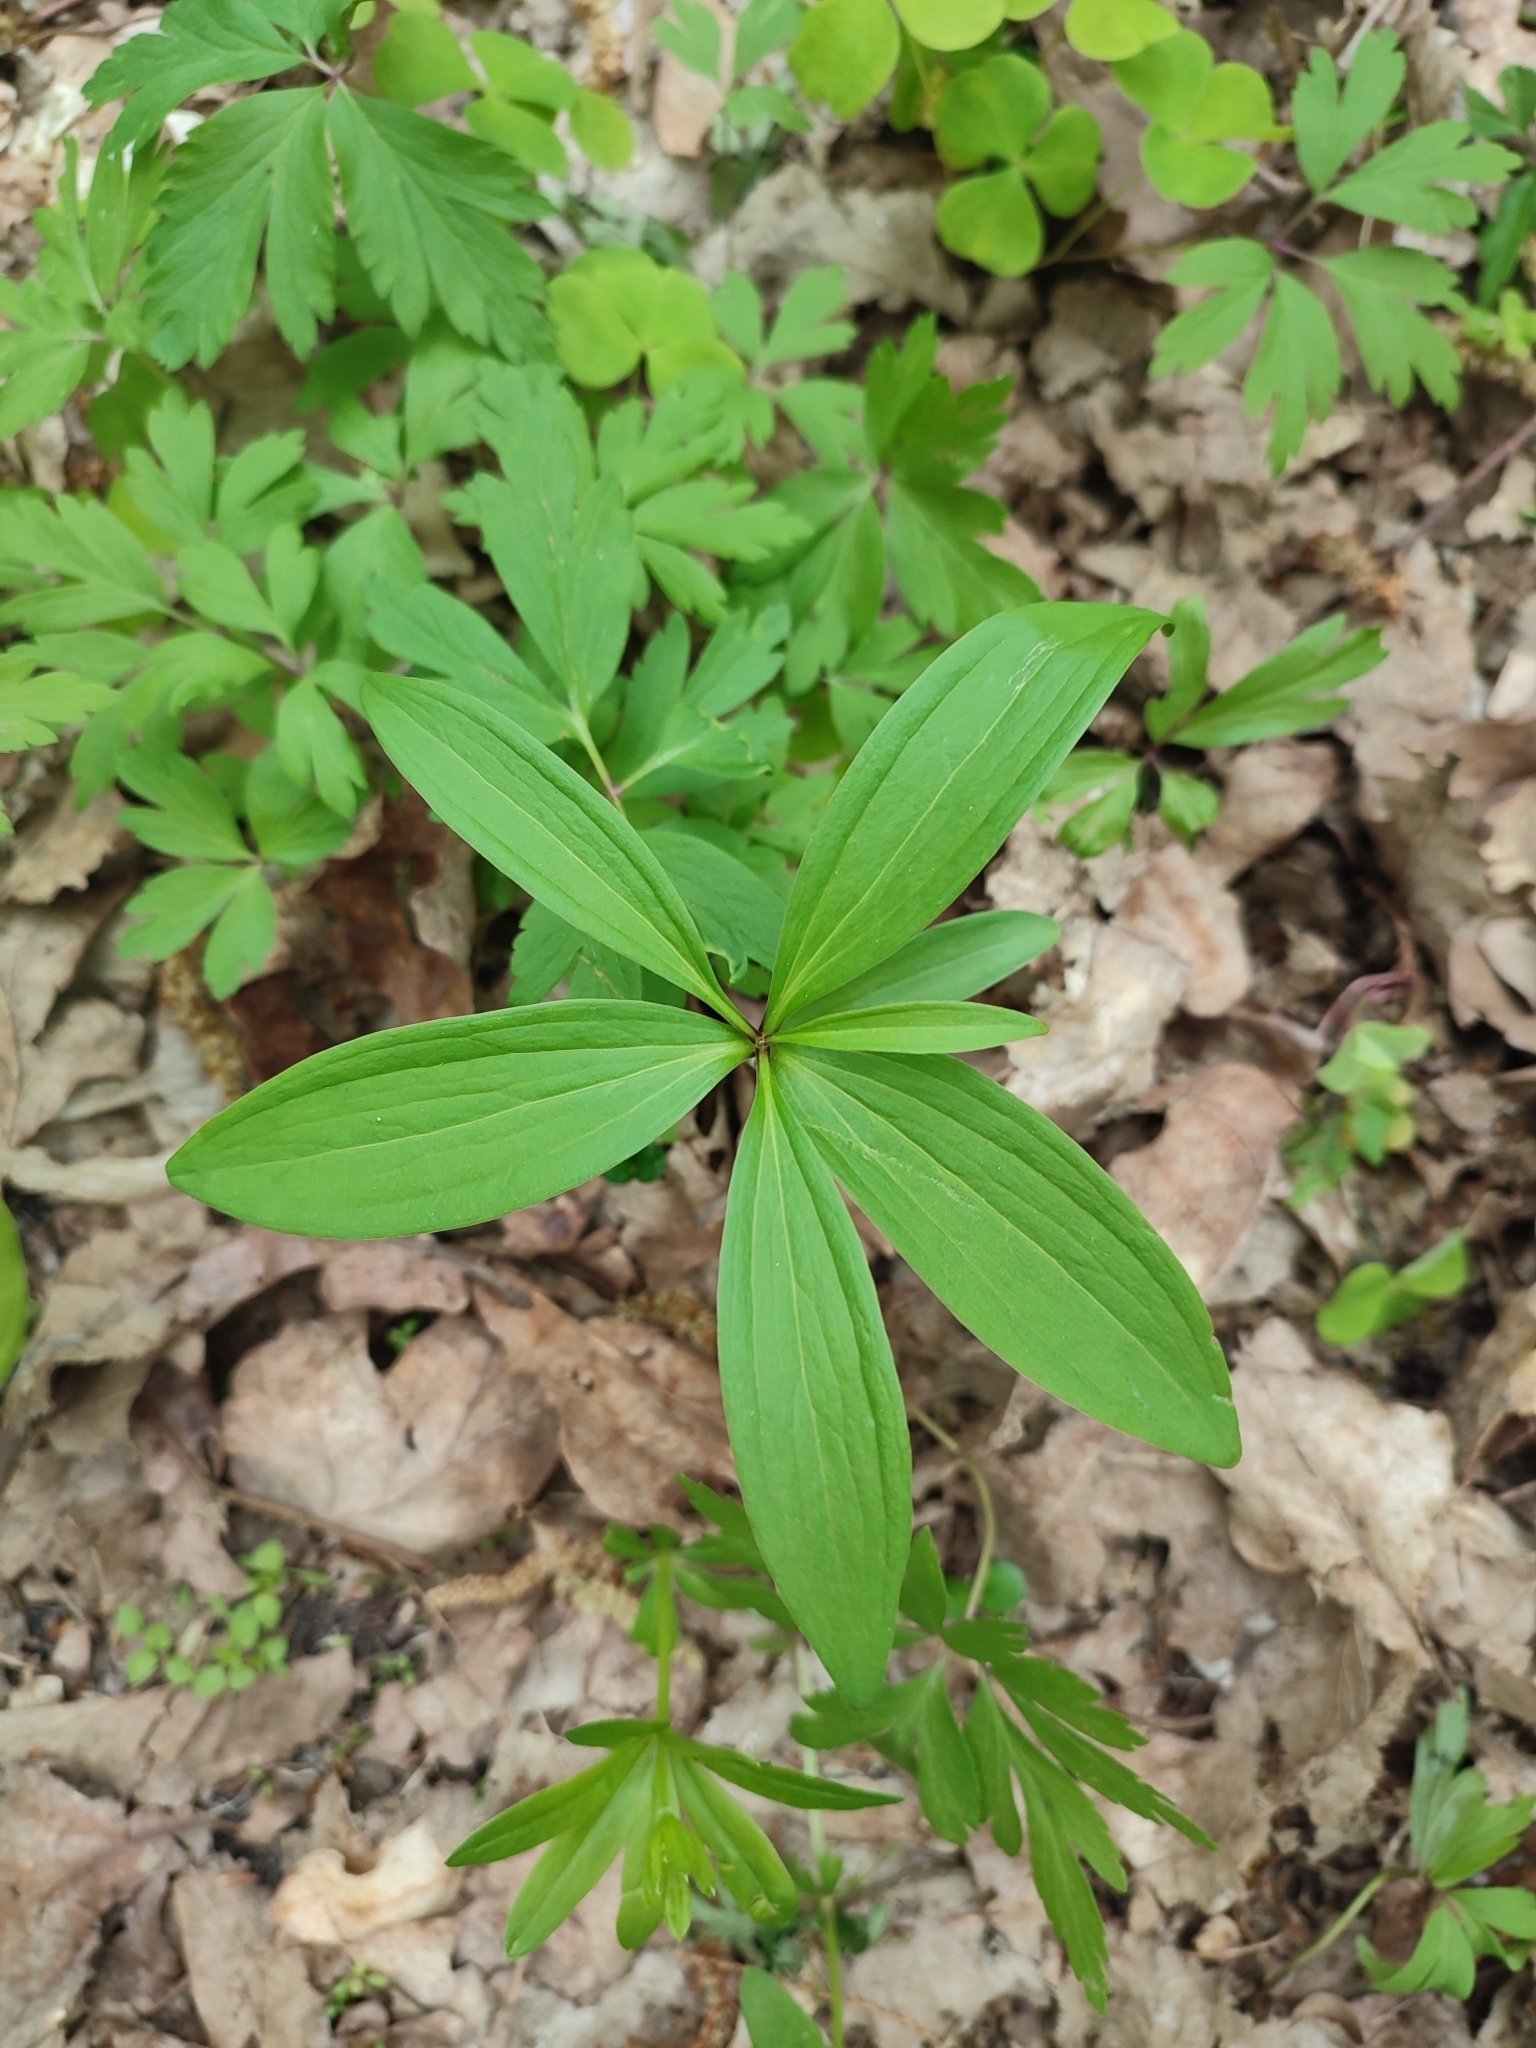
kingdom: Plantae
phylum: Tracheophyta
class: Liliopsida
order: Liliales
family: Liliaceae
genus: Lilium
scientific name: Lilium martagon
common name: Martagon lily
